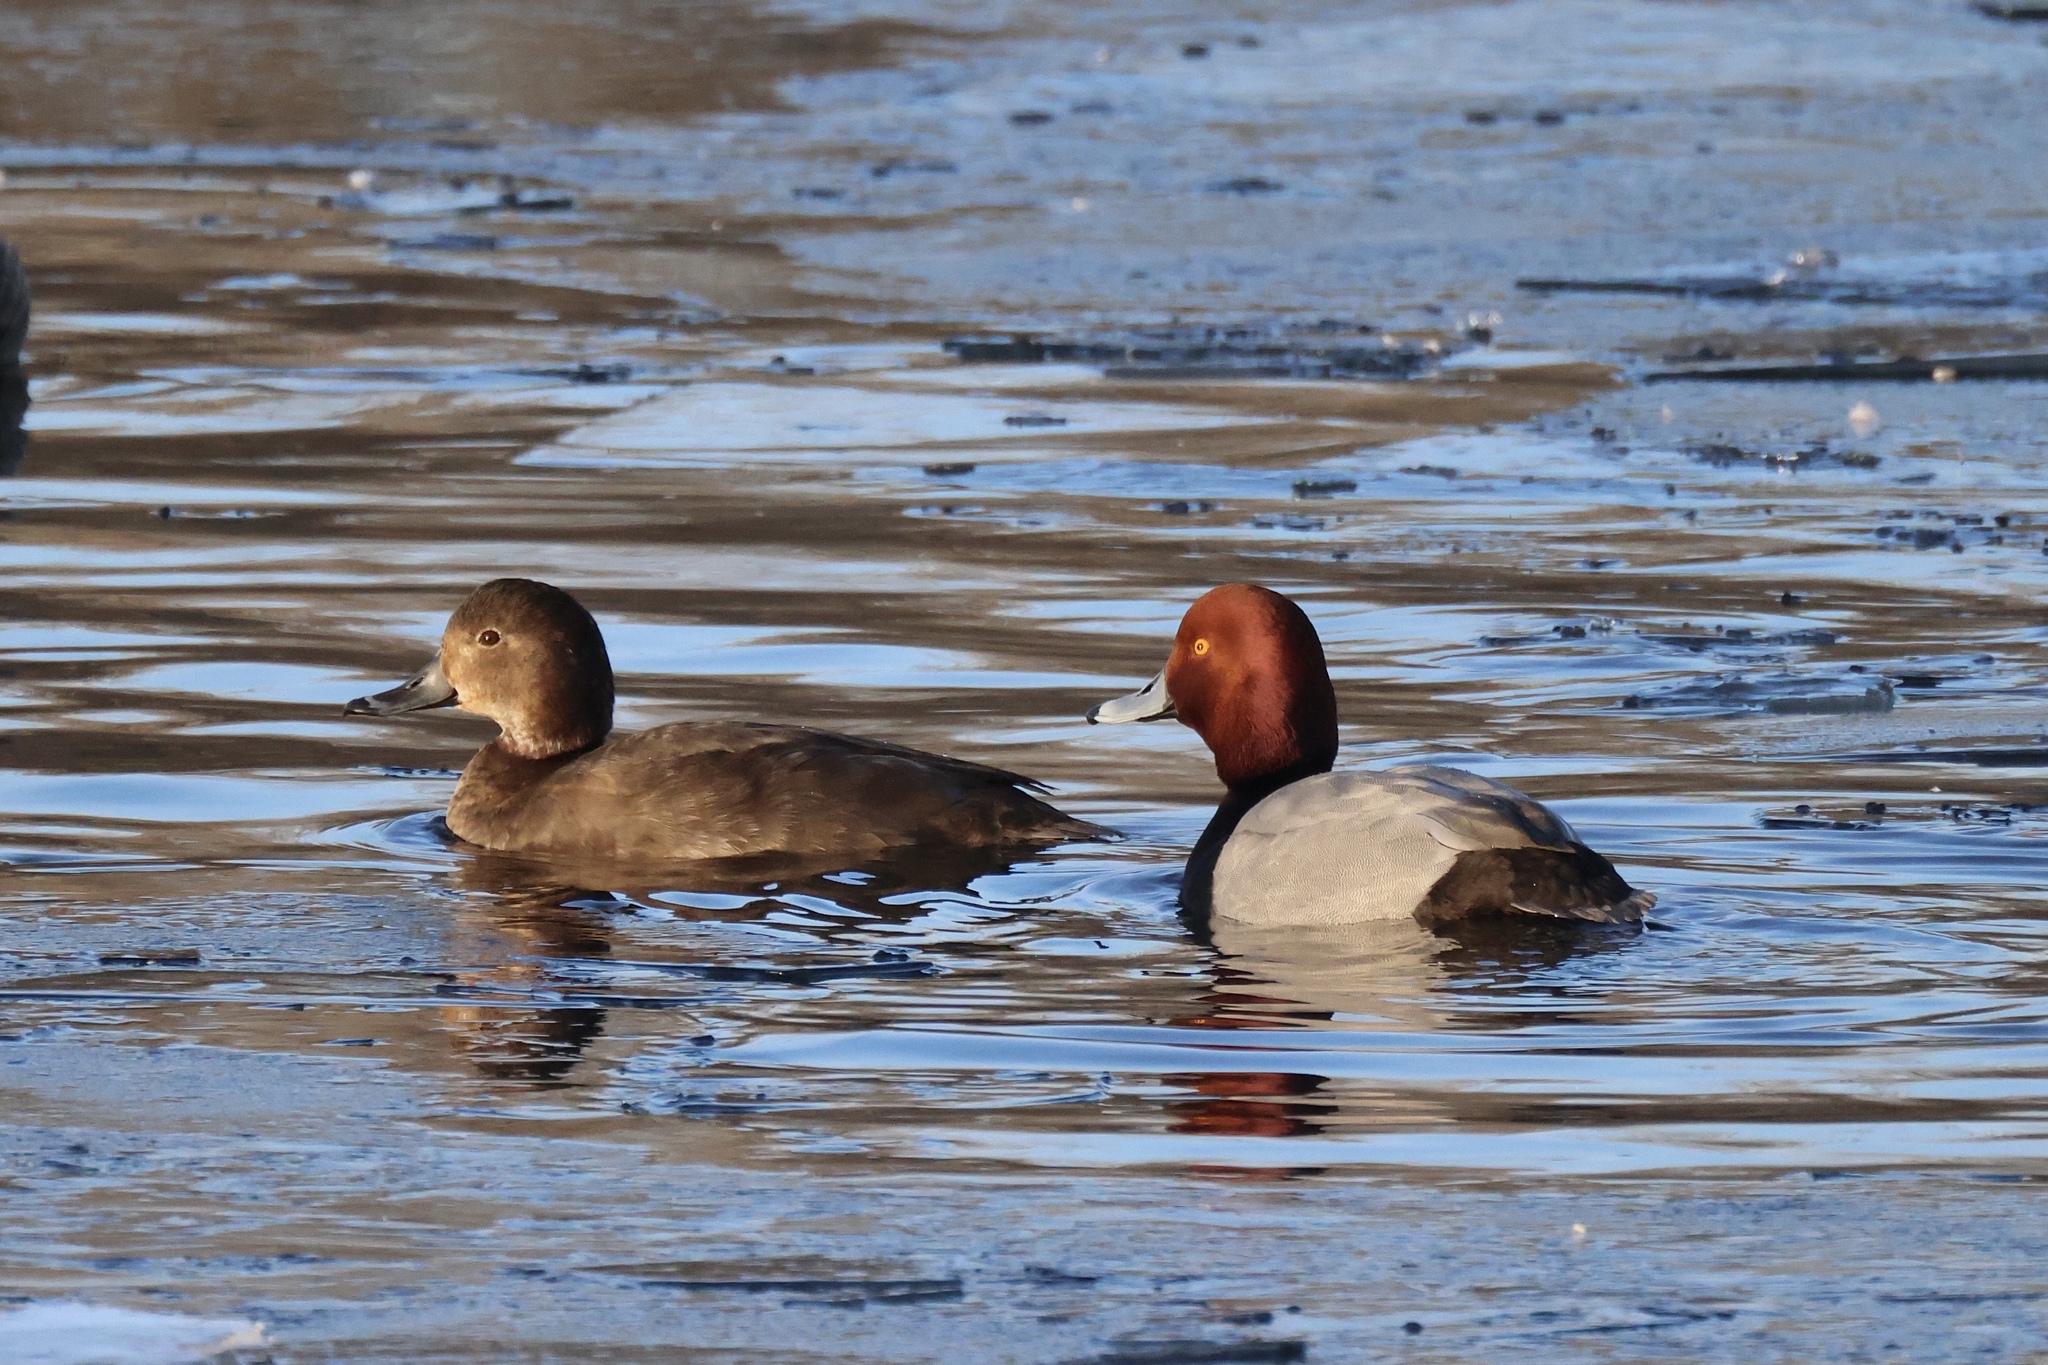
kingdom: Animalia
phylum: Chordata
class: Aves
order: Anseriformes
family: Anatidae
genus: Aythya
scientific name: Aythya americana
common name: Redhead
